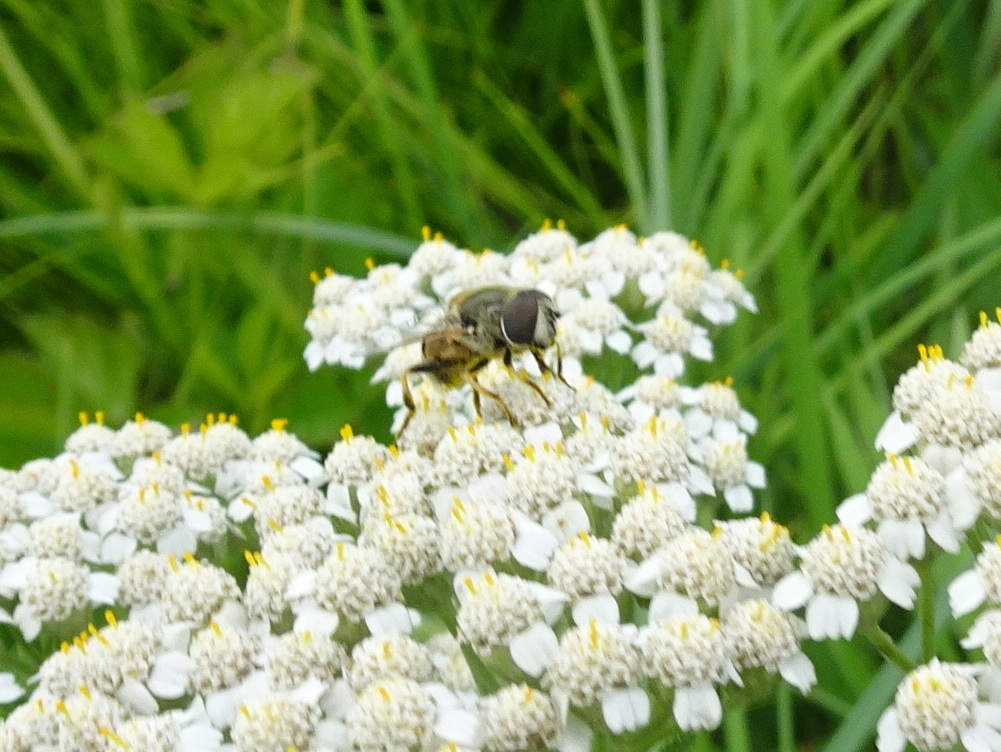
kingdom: Animalia
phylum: Arthropoda
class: Insecta
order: Diptera
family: Syrphidae
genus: Eristalis
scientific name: Eristalis stipator
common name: Yellow-shouldered drone fly
